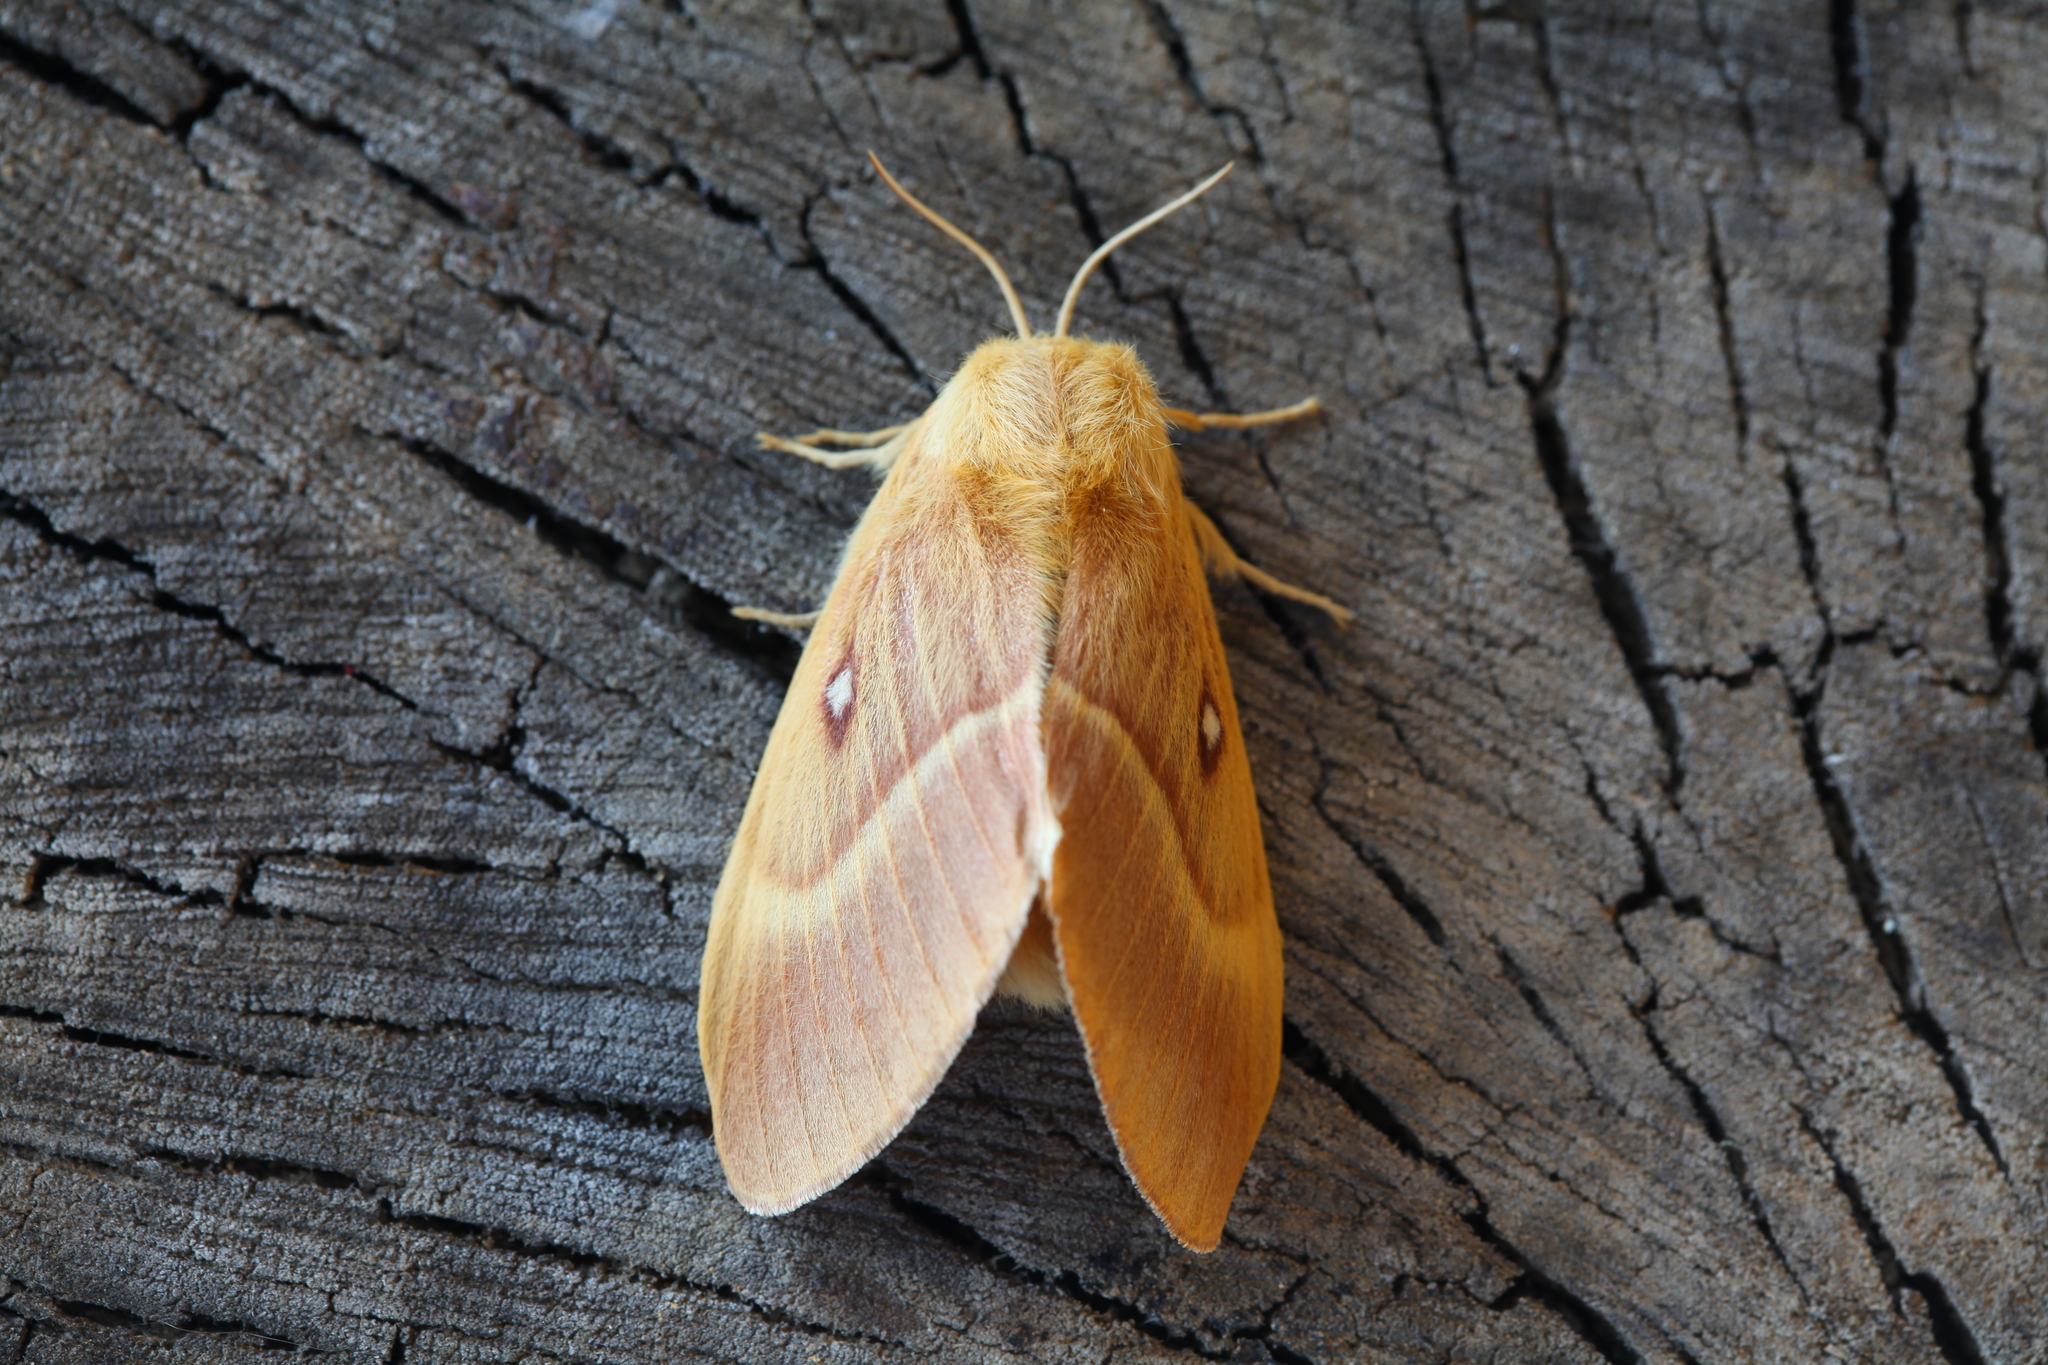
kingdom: Animalia
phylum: Arthropoda
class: Insecta
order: Lepidoptera
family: Lasiocampidae
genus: Lasiocampa
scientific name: Lasiocampa quercus
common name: Oak eggar
